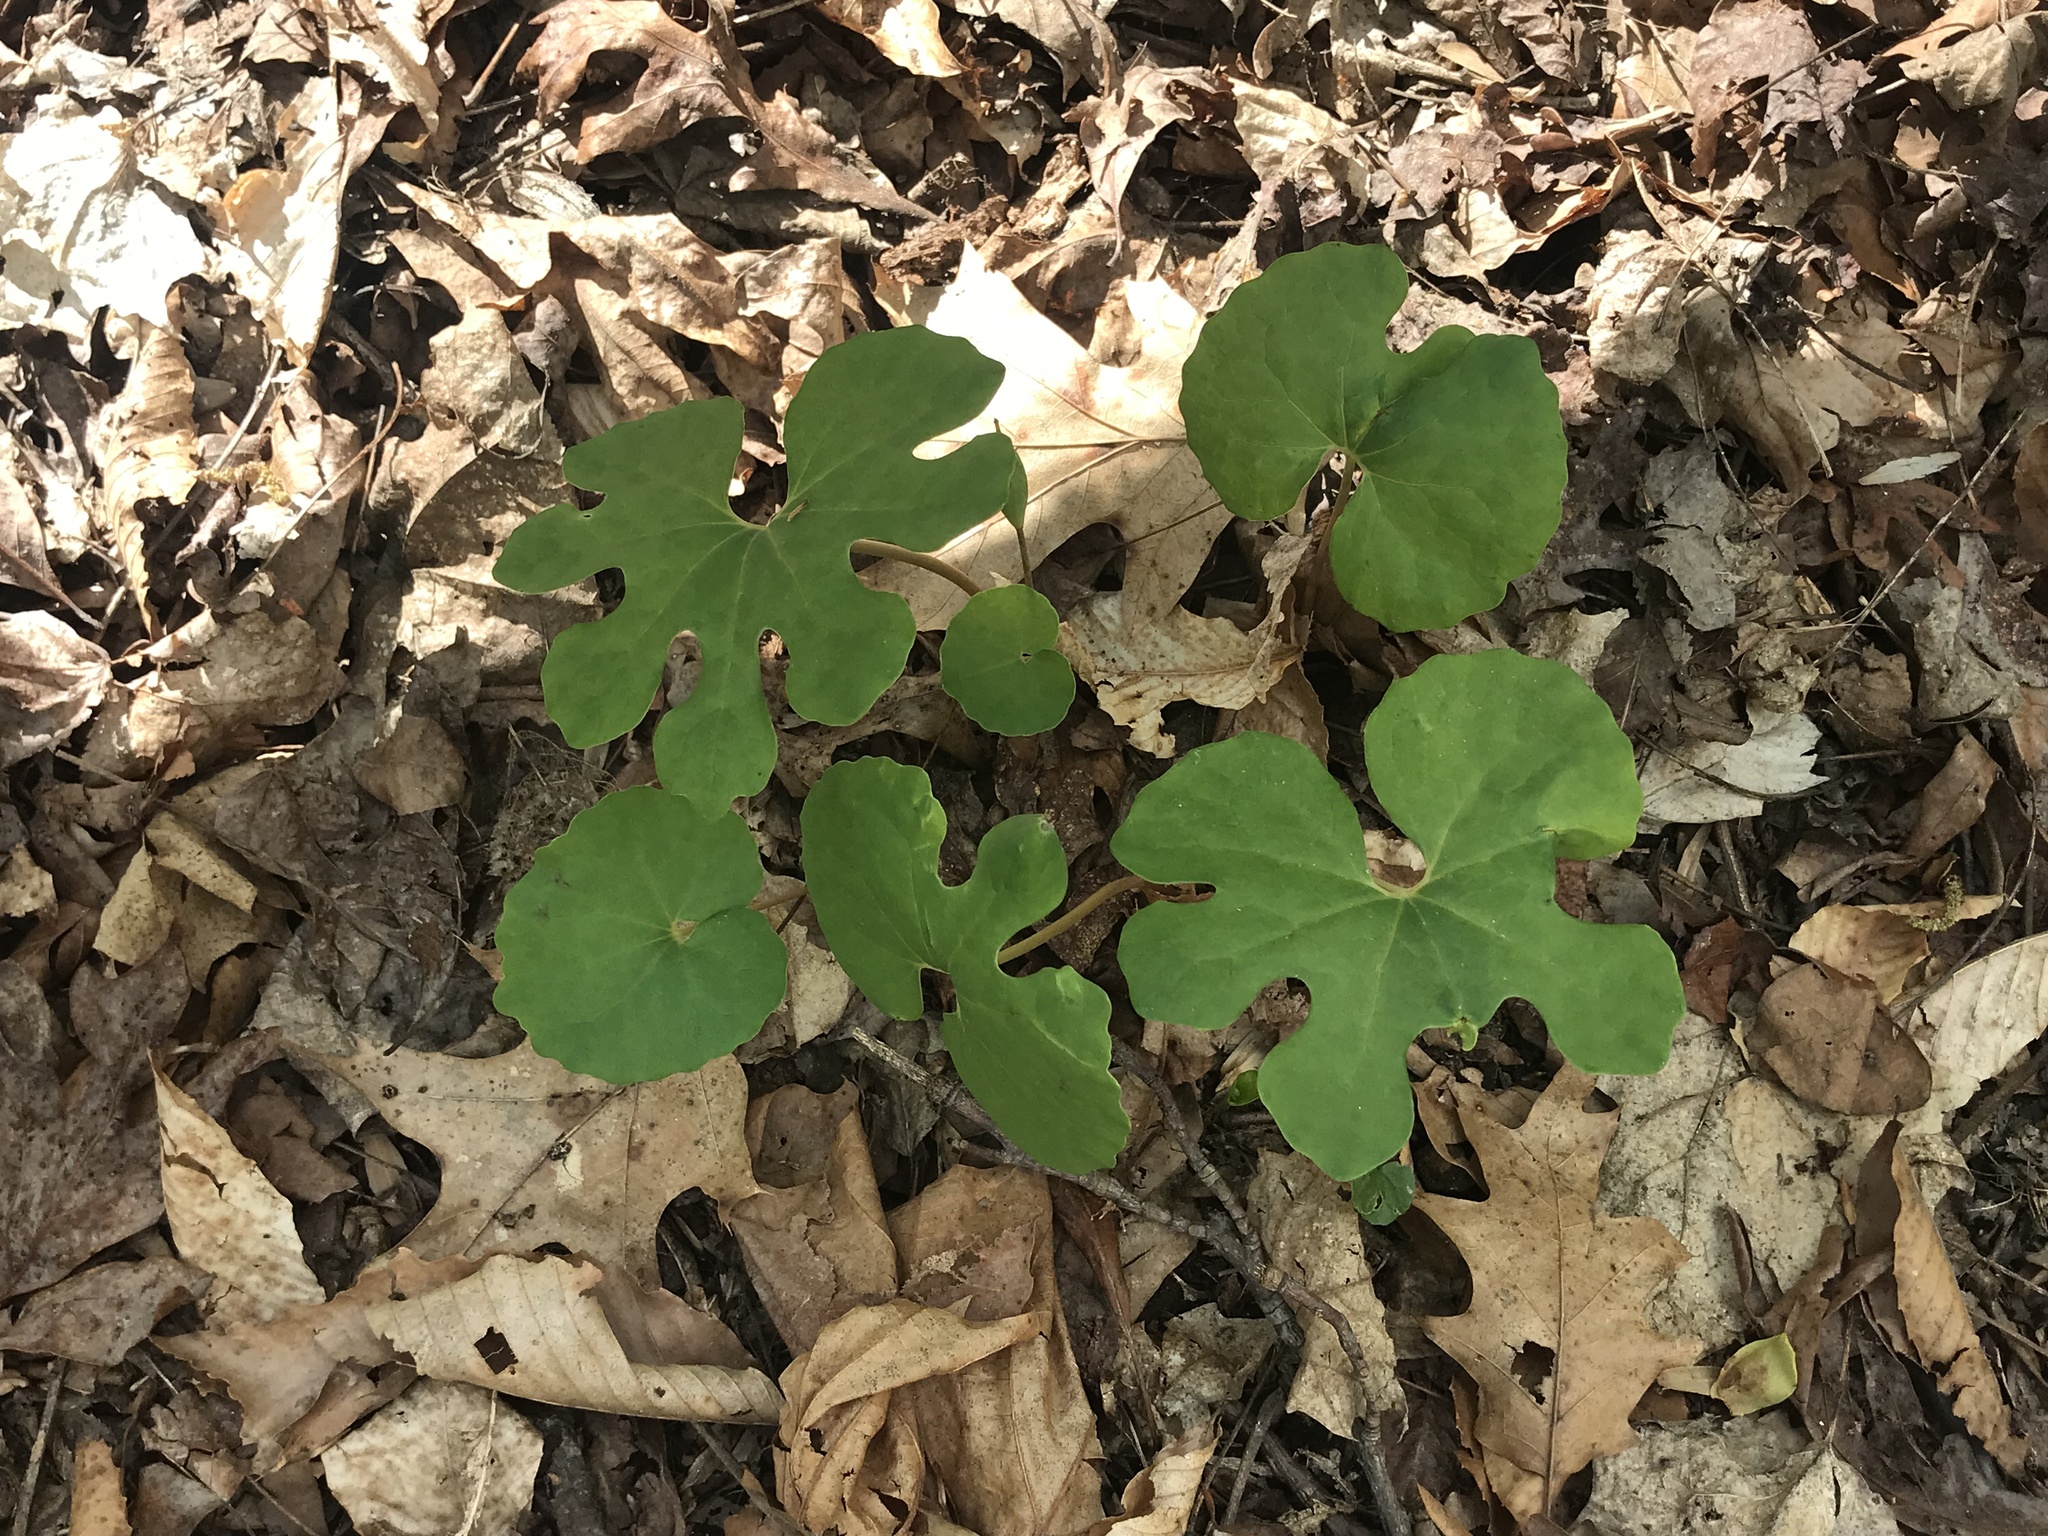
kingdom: Plantae
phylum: Tracheophyta
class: Magnoliopsida
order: Ranunculales
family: Papaveraceae
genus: Sanguinaria
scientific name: Sanguinaria canadensis
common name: Bloodroot
